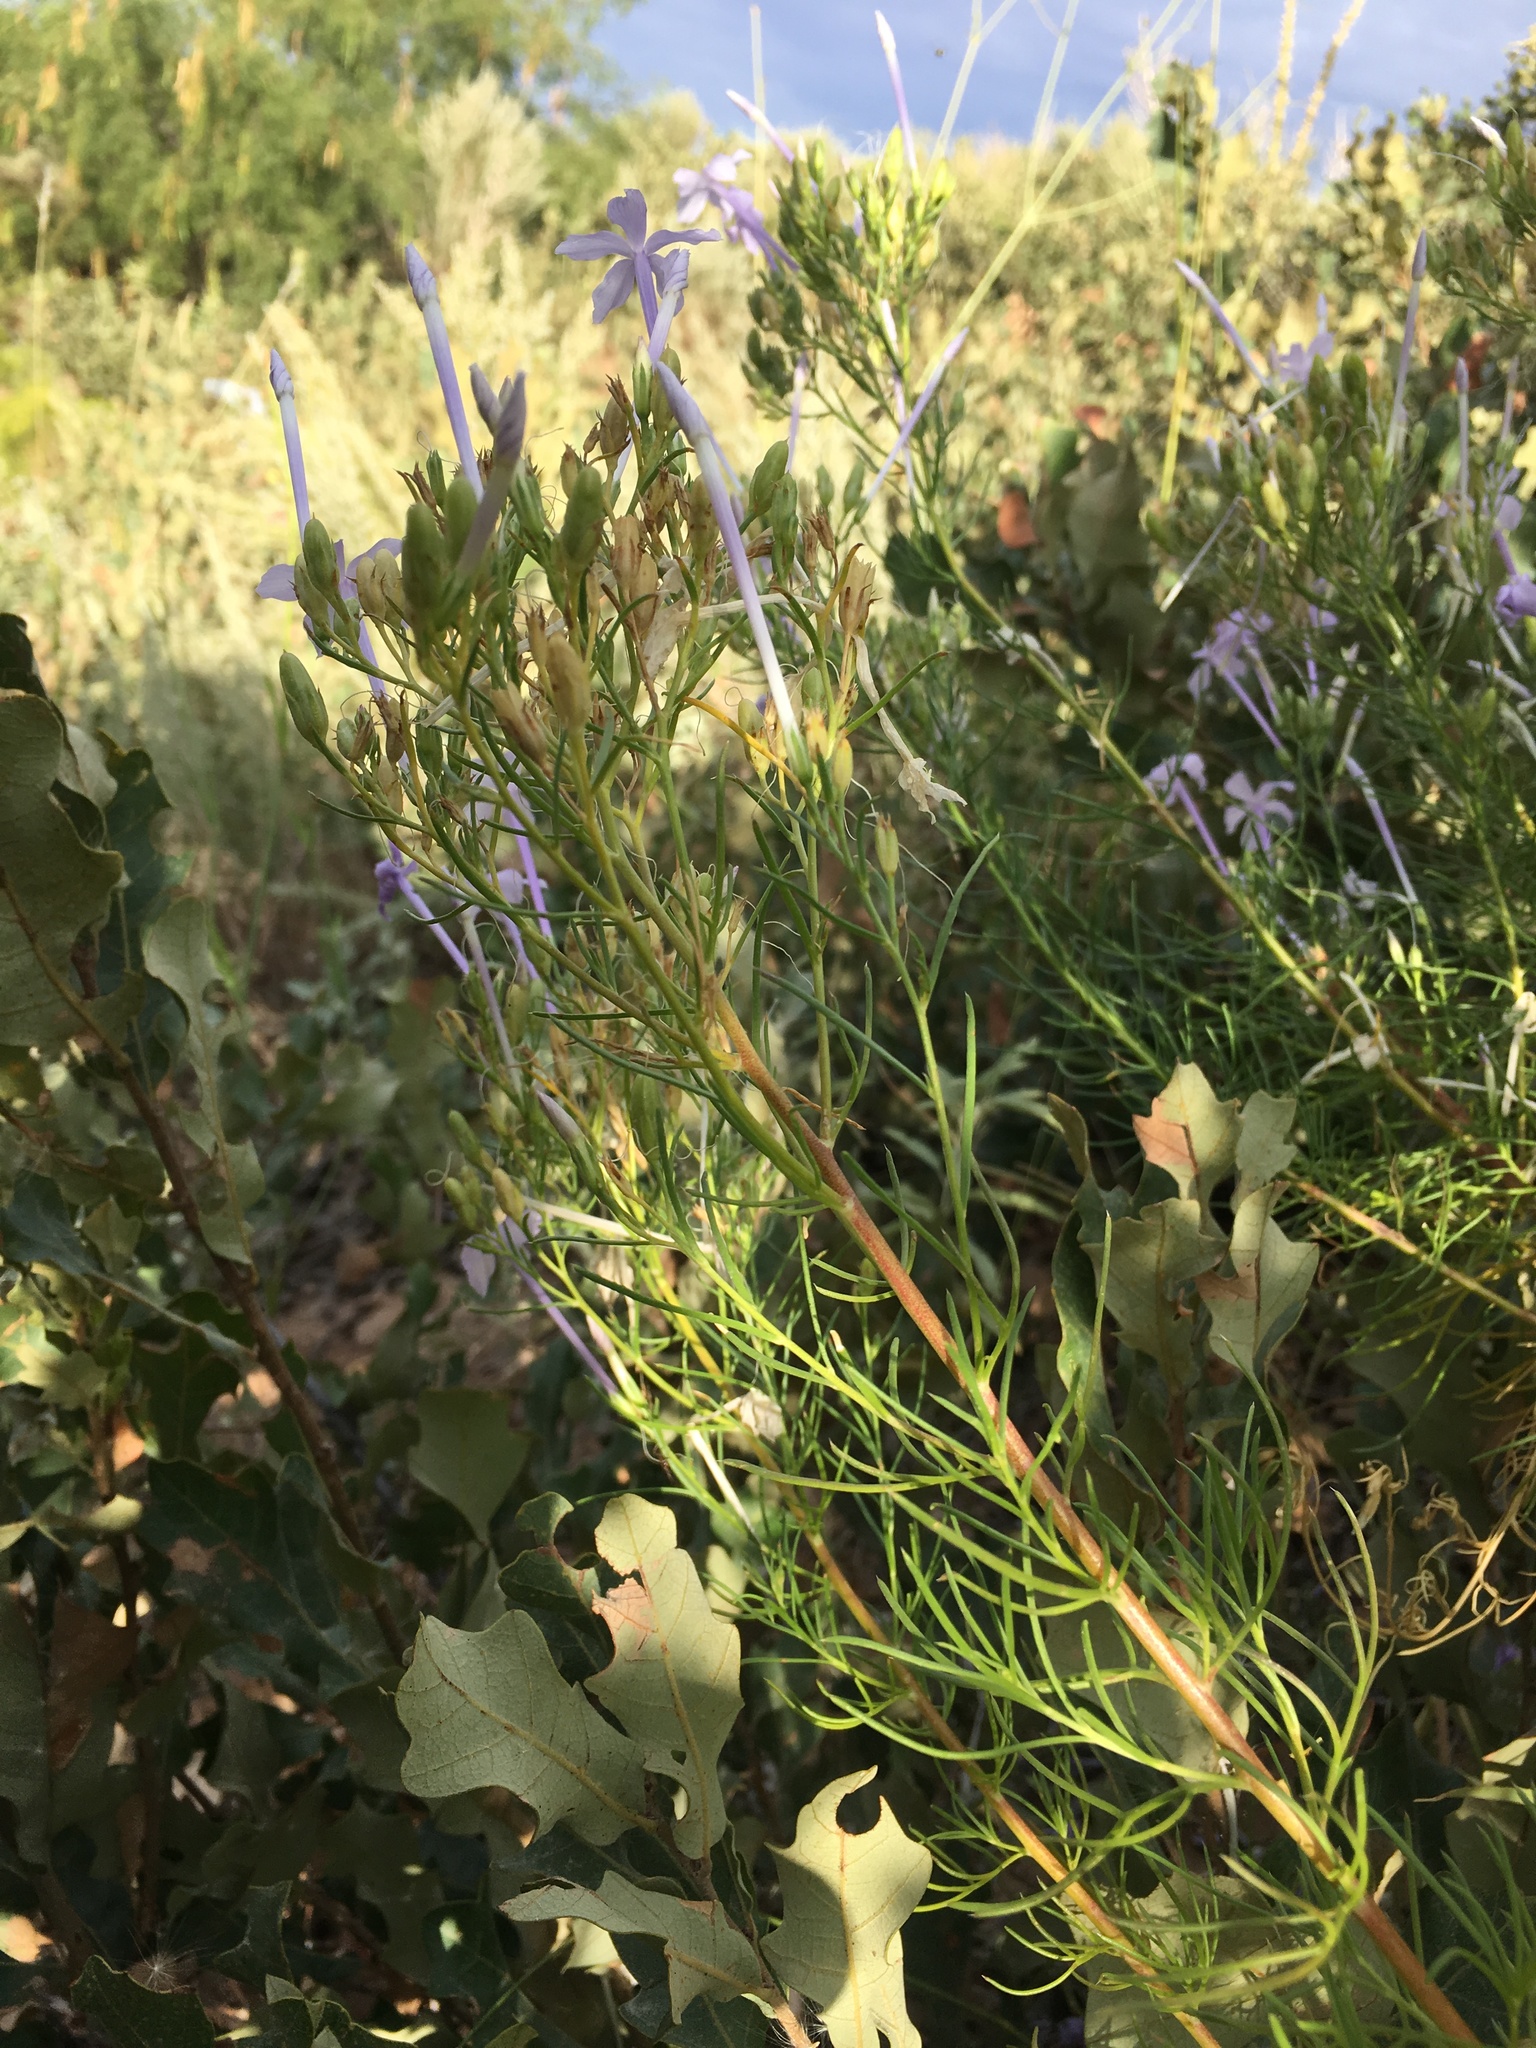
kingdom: Plantae
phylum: Tracheophyta
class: Magnoliopsida
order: Ericales
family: Polemoniaceae
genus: Ipomopsis
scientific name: Ipomopsis longiflora
